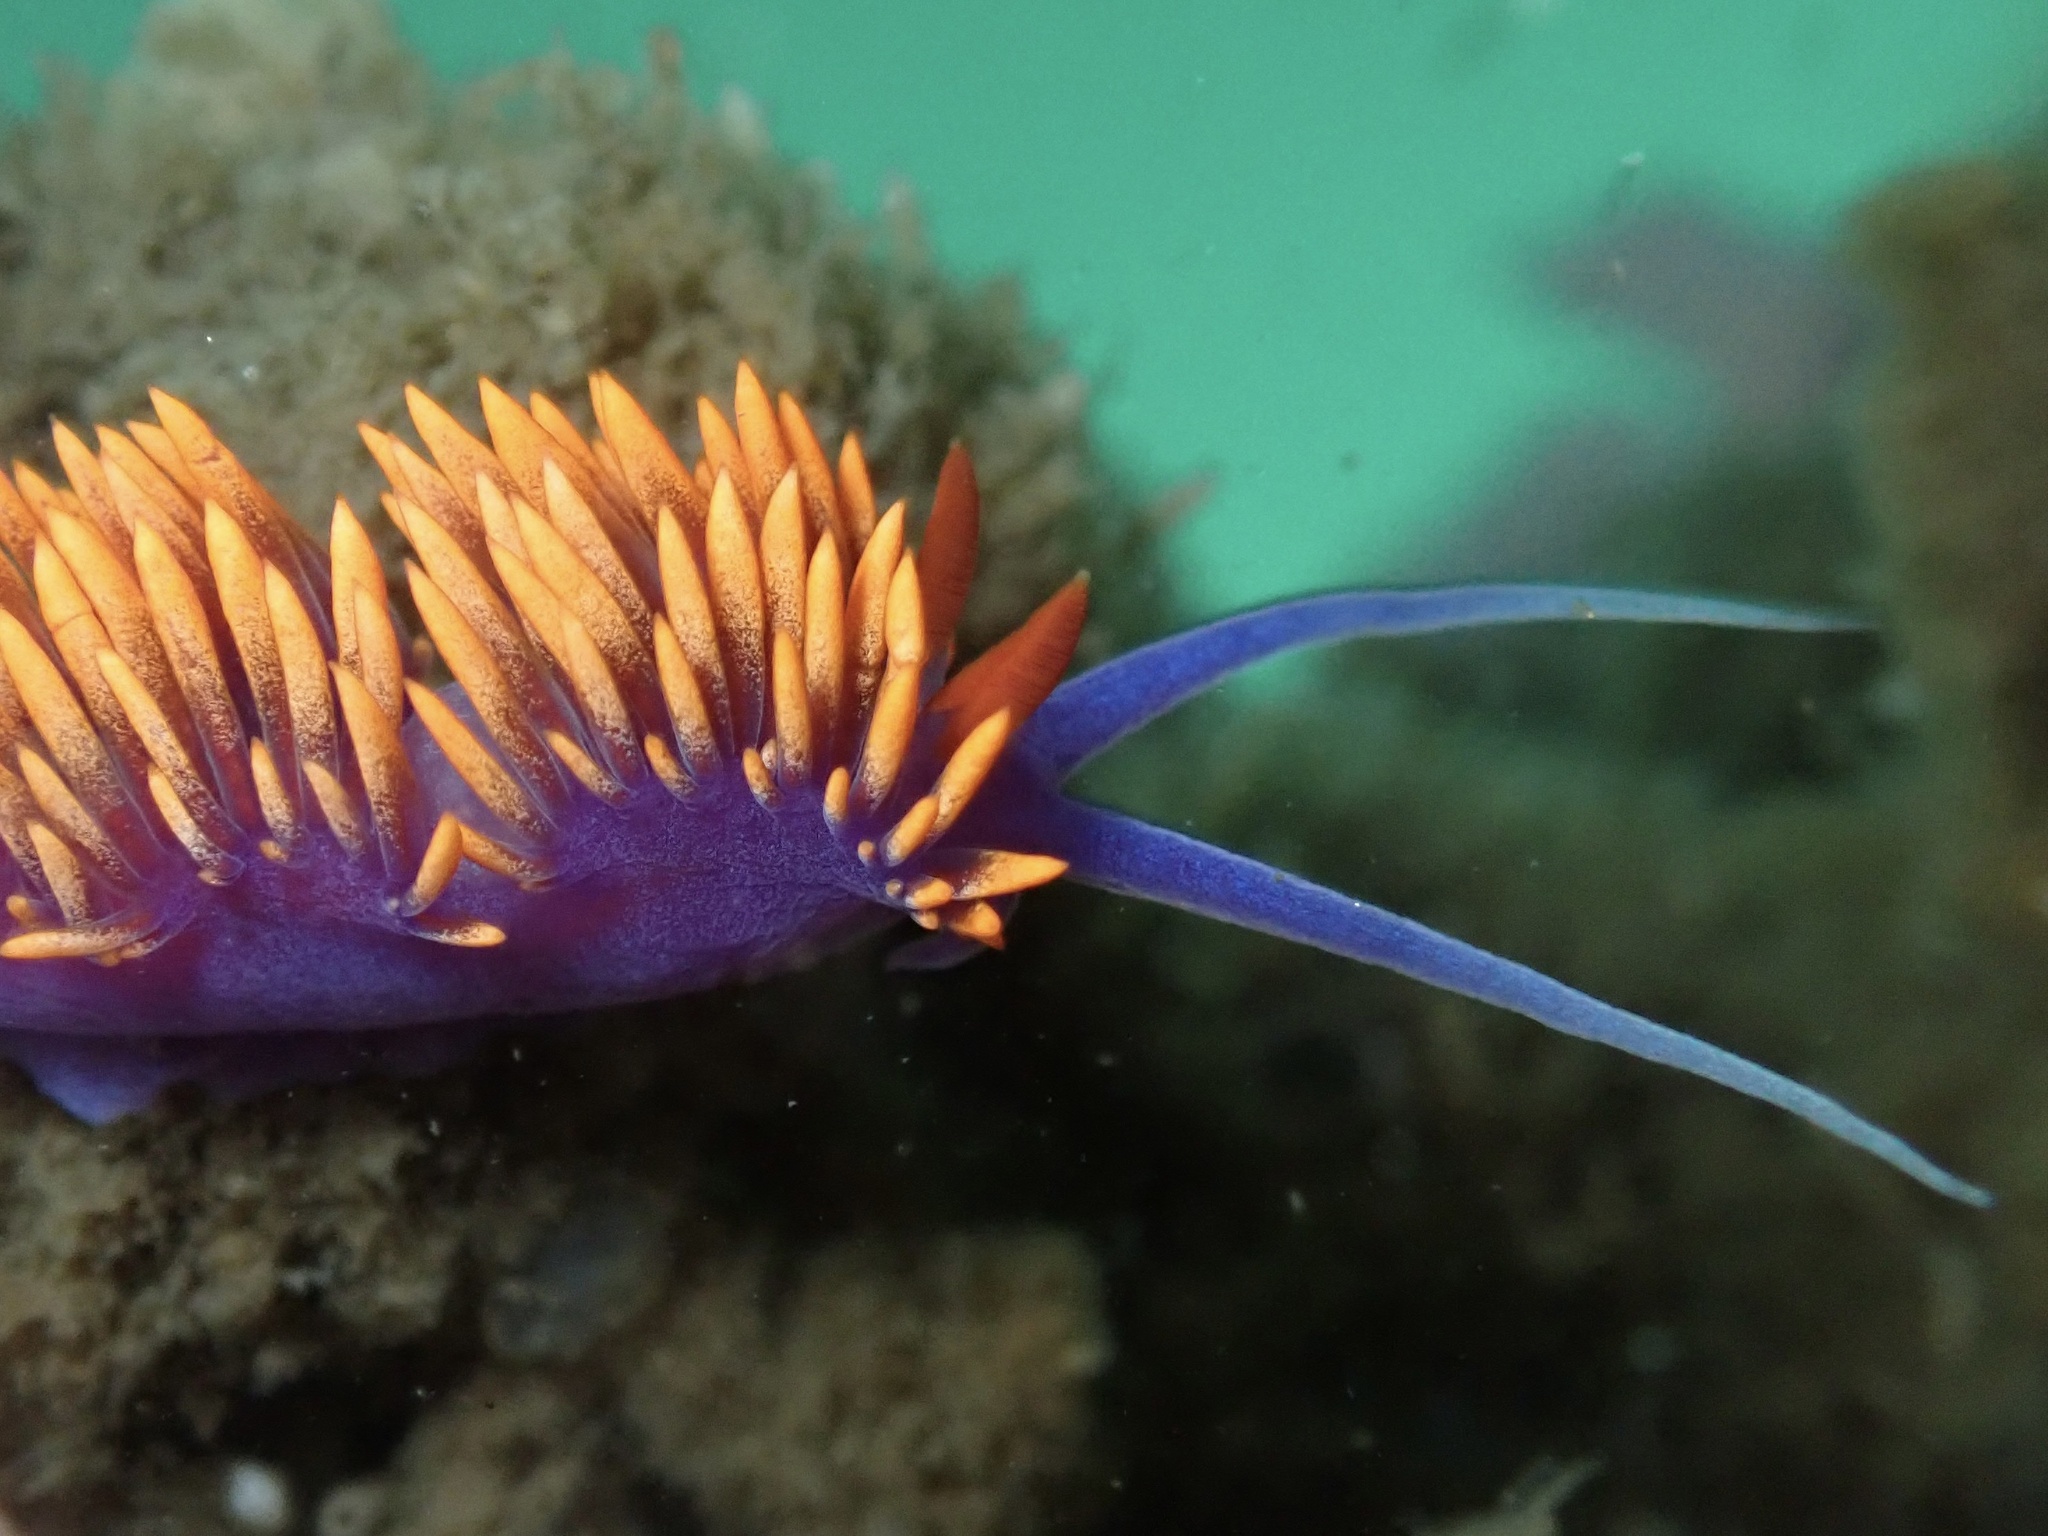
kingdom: Animalia
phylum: Mollusca
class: Gastropoda
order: Nudibranchia
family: Flabellinopsidae
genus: Flabellinopsis
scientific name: Flabellinopsis iodinea
